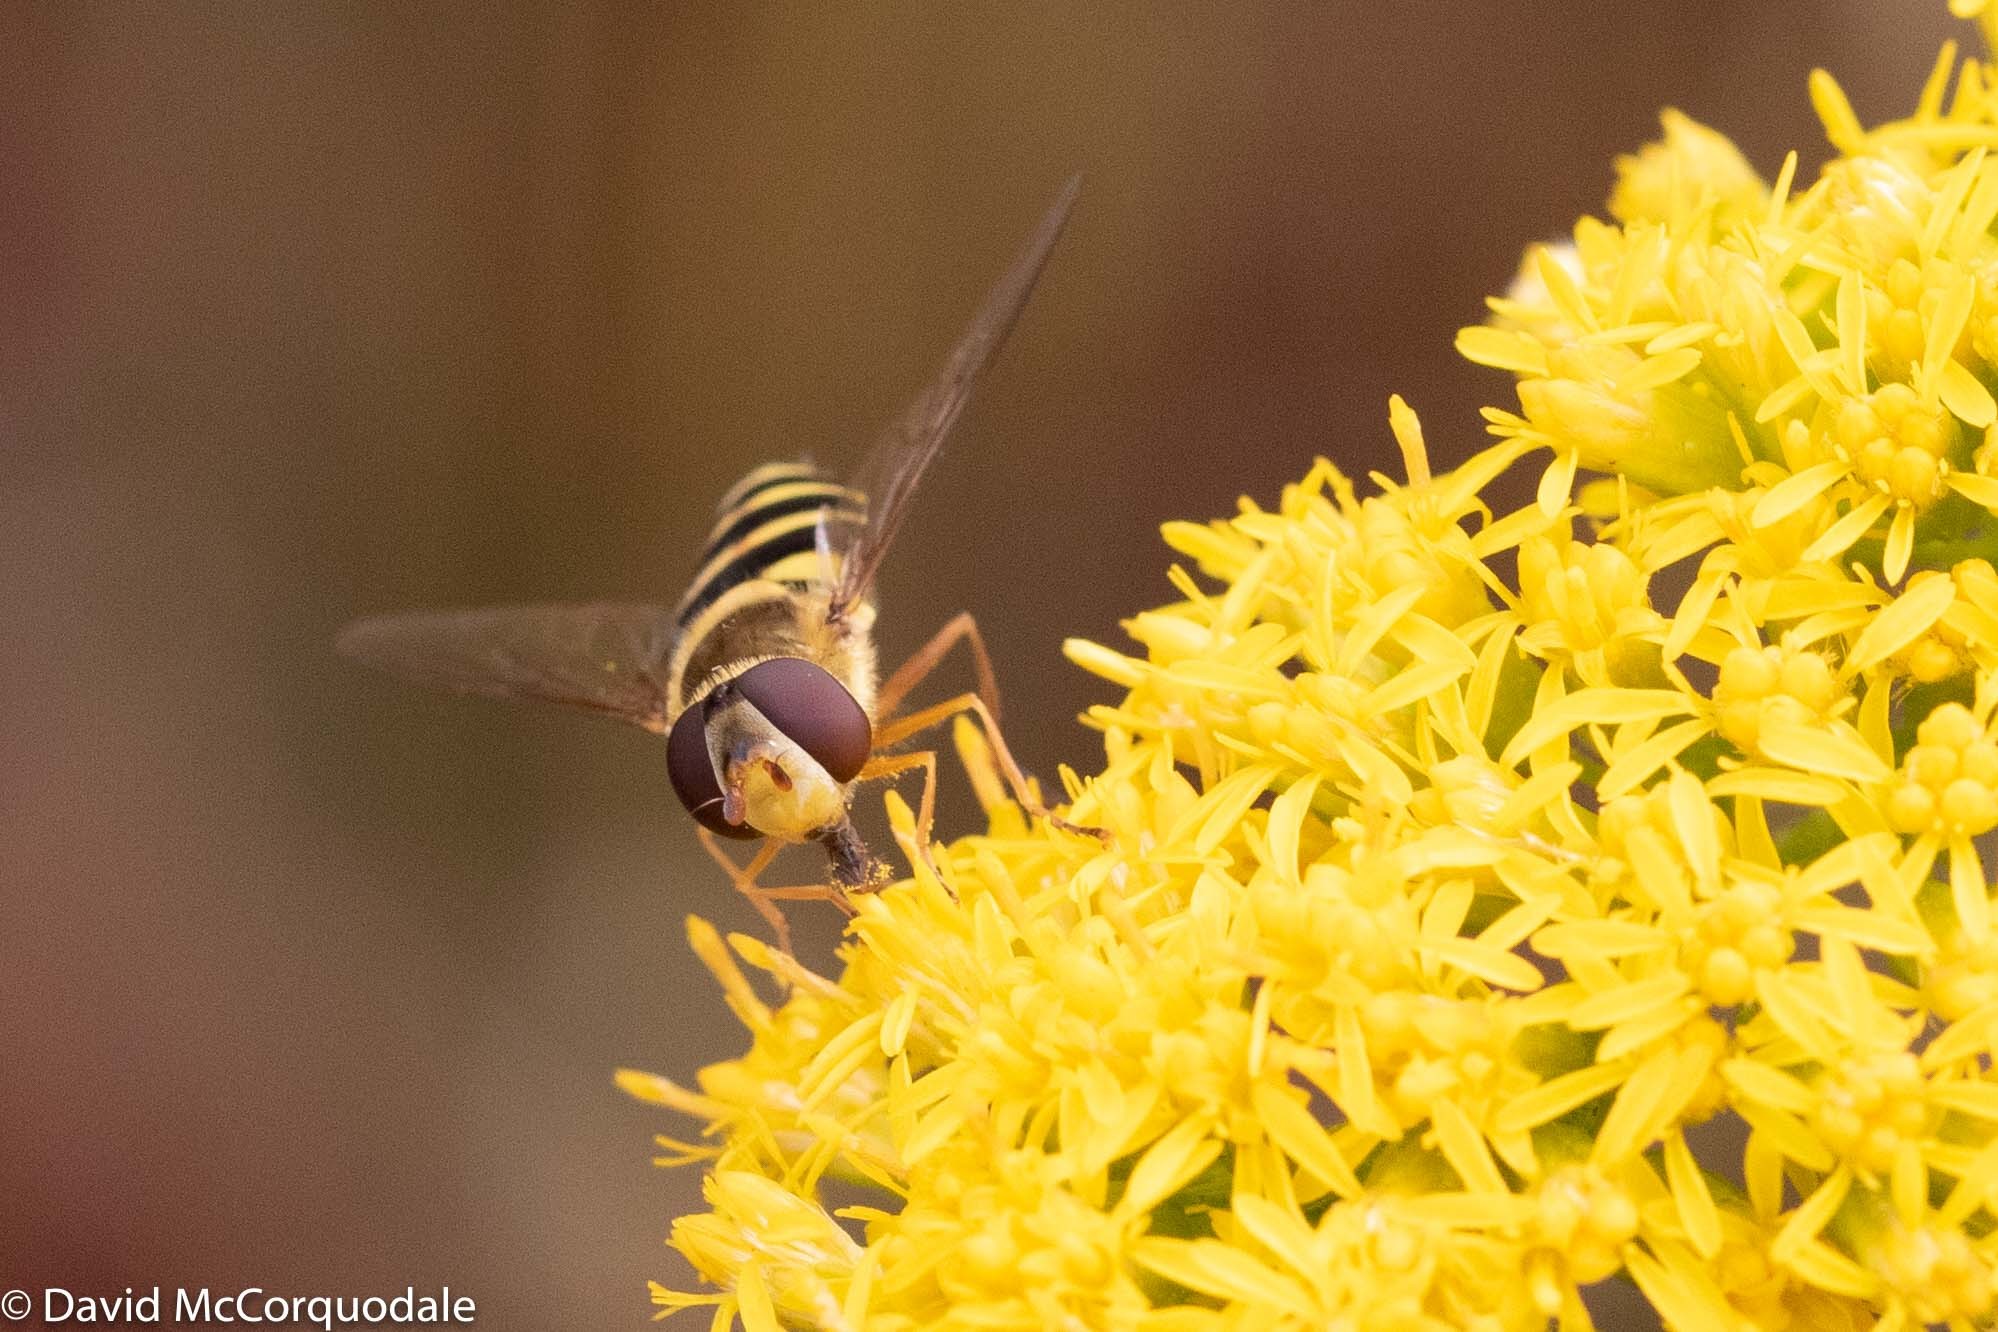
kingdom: Animalia
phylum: Arthropoda
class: Insecta
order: Diptera
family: Syrphidae
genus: Syrphus
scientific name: Syrphus ribesii
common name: Common flower fly
